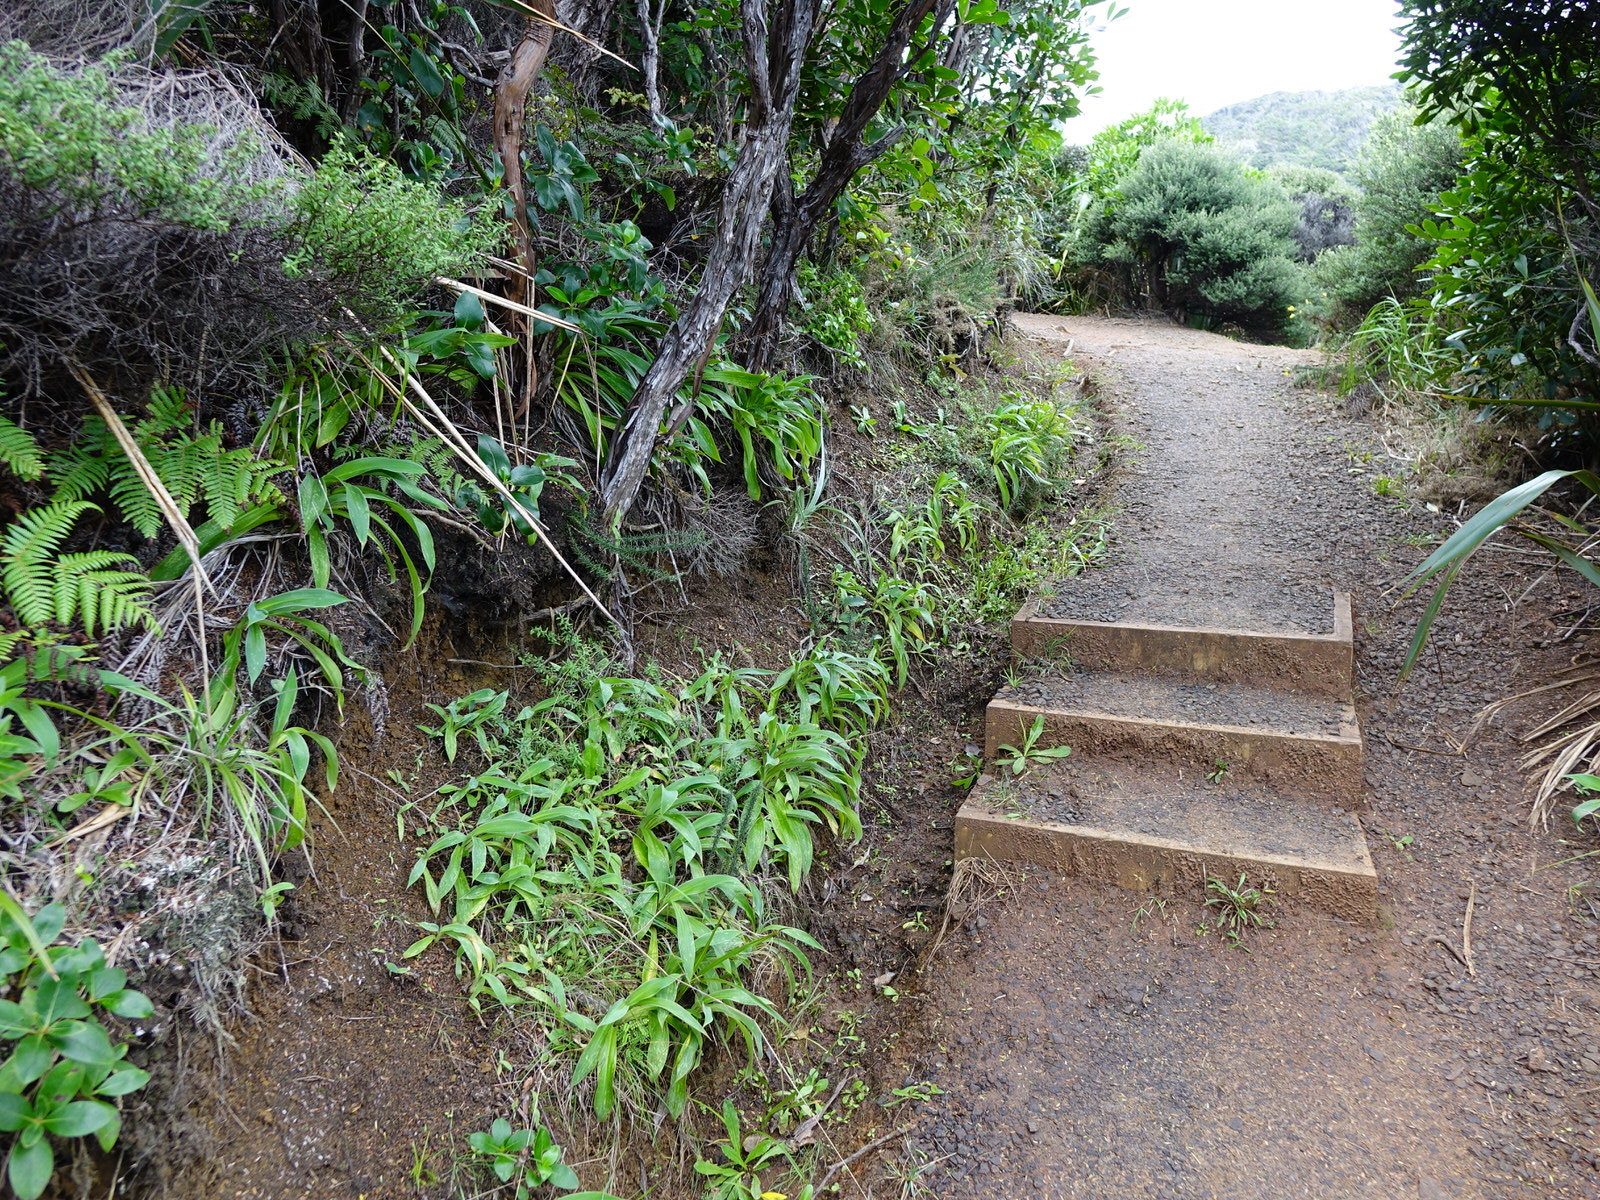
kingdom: Plantae
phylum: Tracheophyta
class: Liliopsida
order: Asparagales
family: Asparagaceae
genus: Arthropodium
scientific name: Arthropodium cirratum
